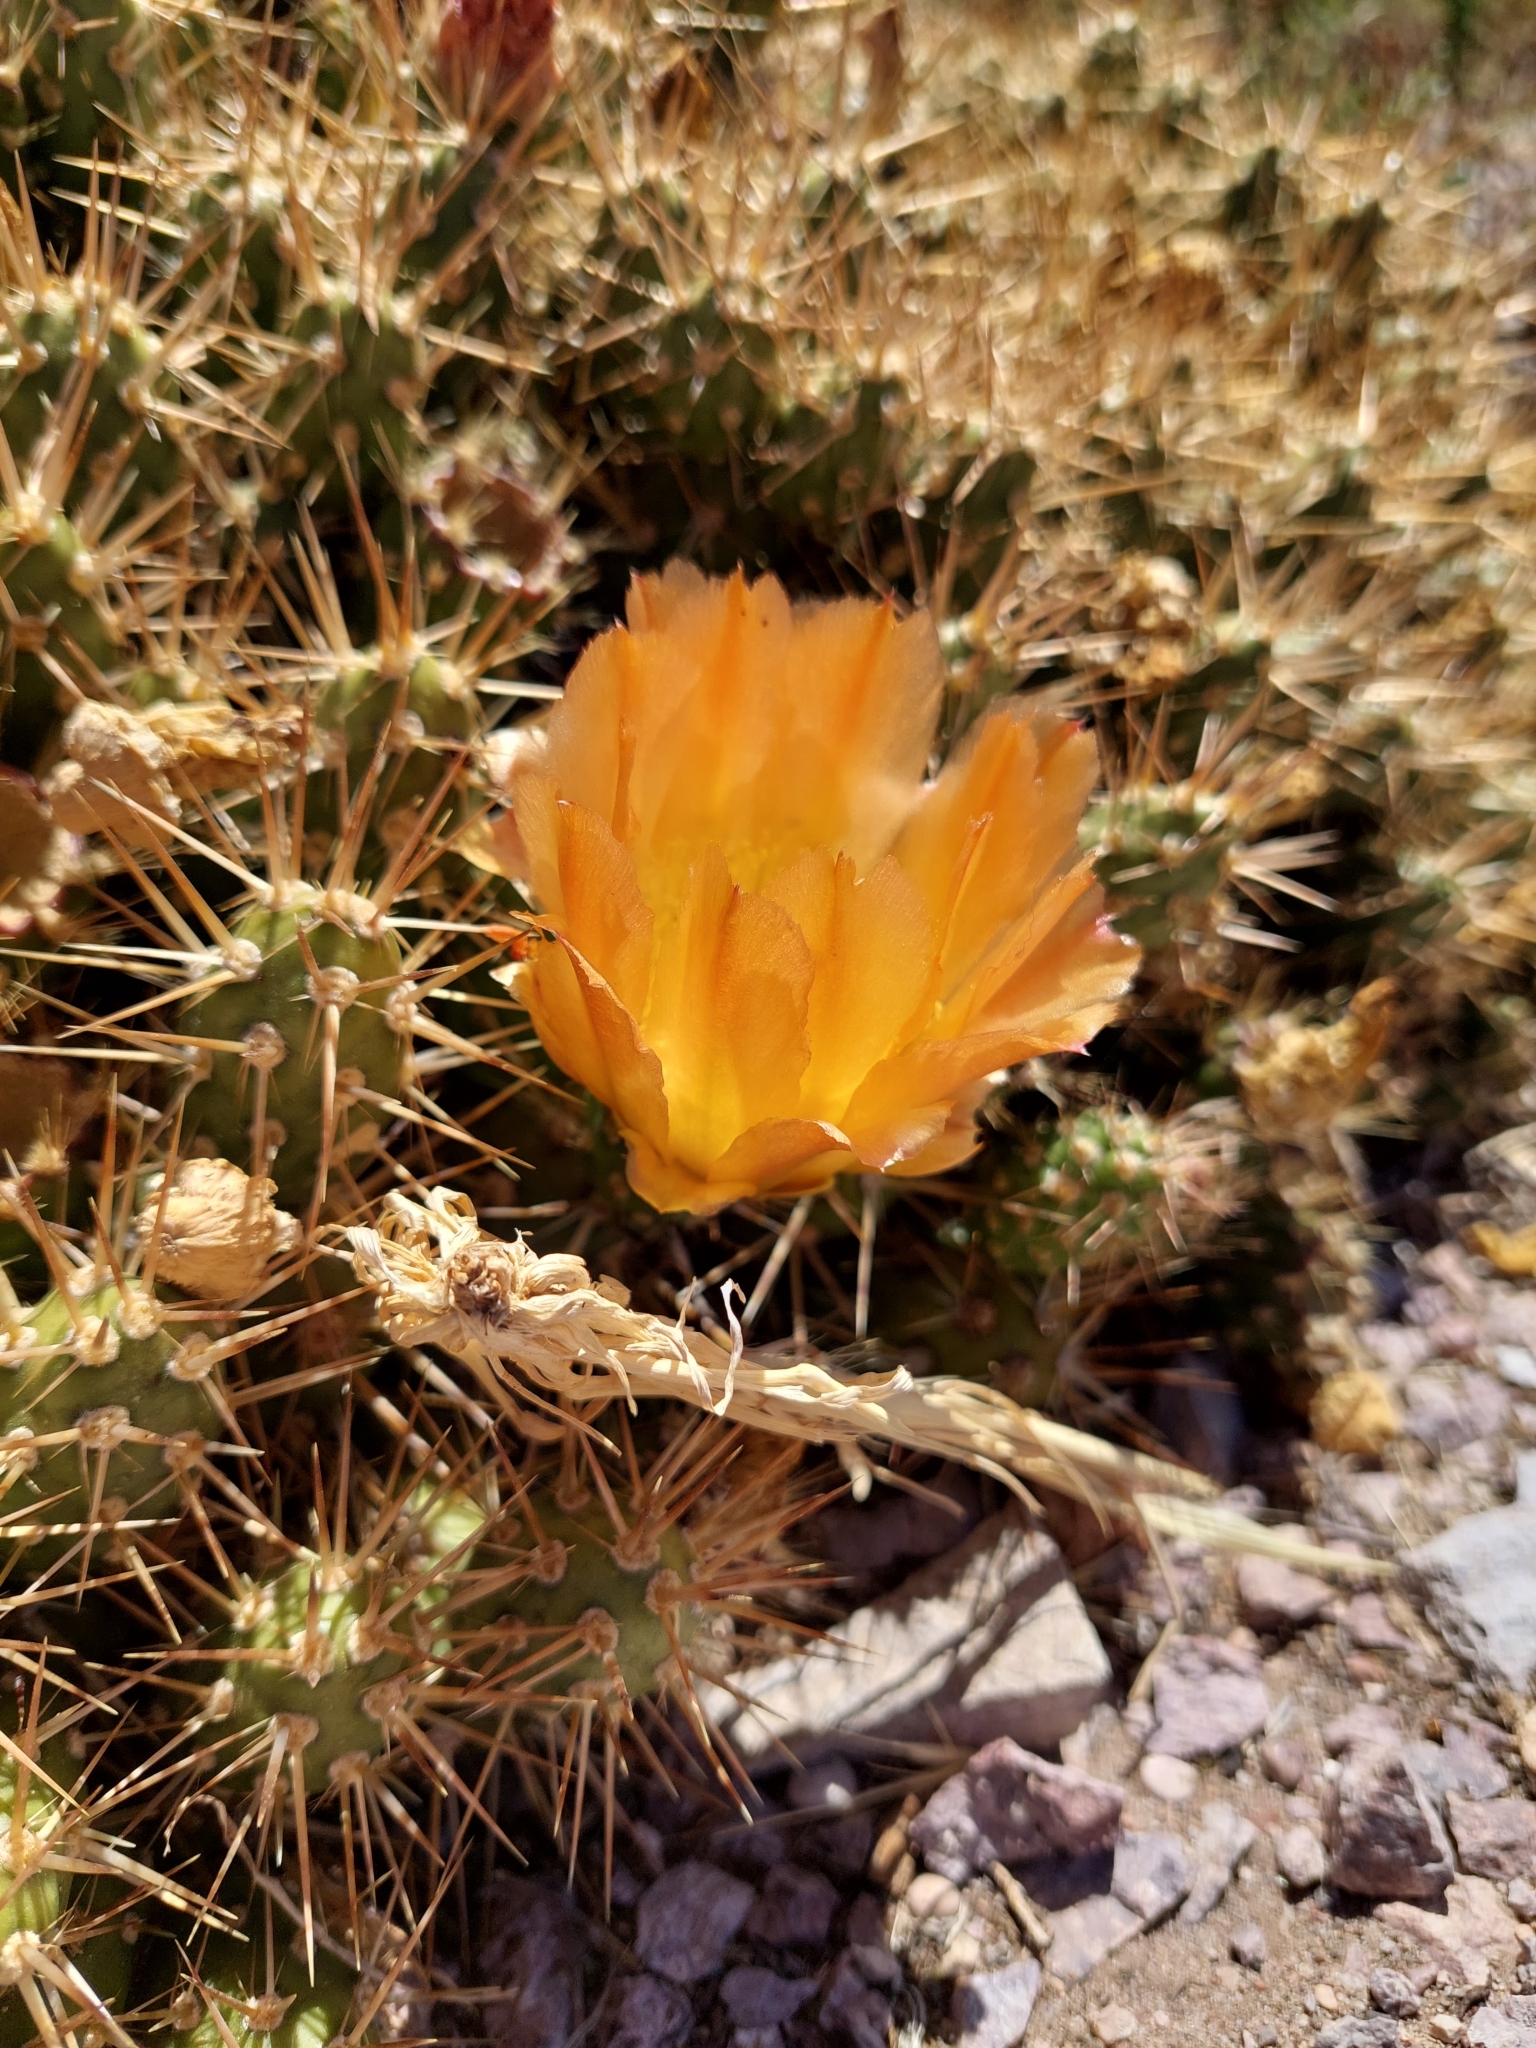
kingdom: Plantae
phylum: Tracheophyta
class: Magnoliopsida
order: Caryophyllales
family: Cactaceae
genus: Maihueniopsis
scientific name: Maihueniopsis darwinii
